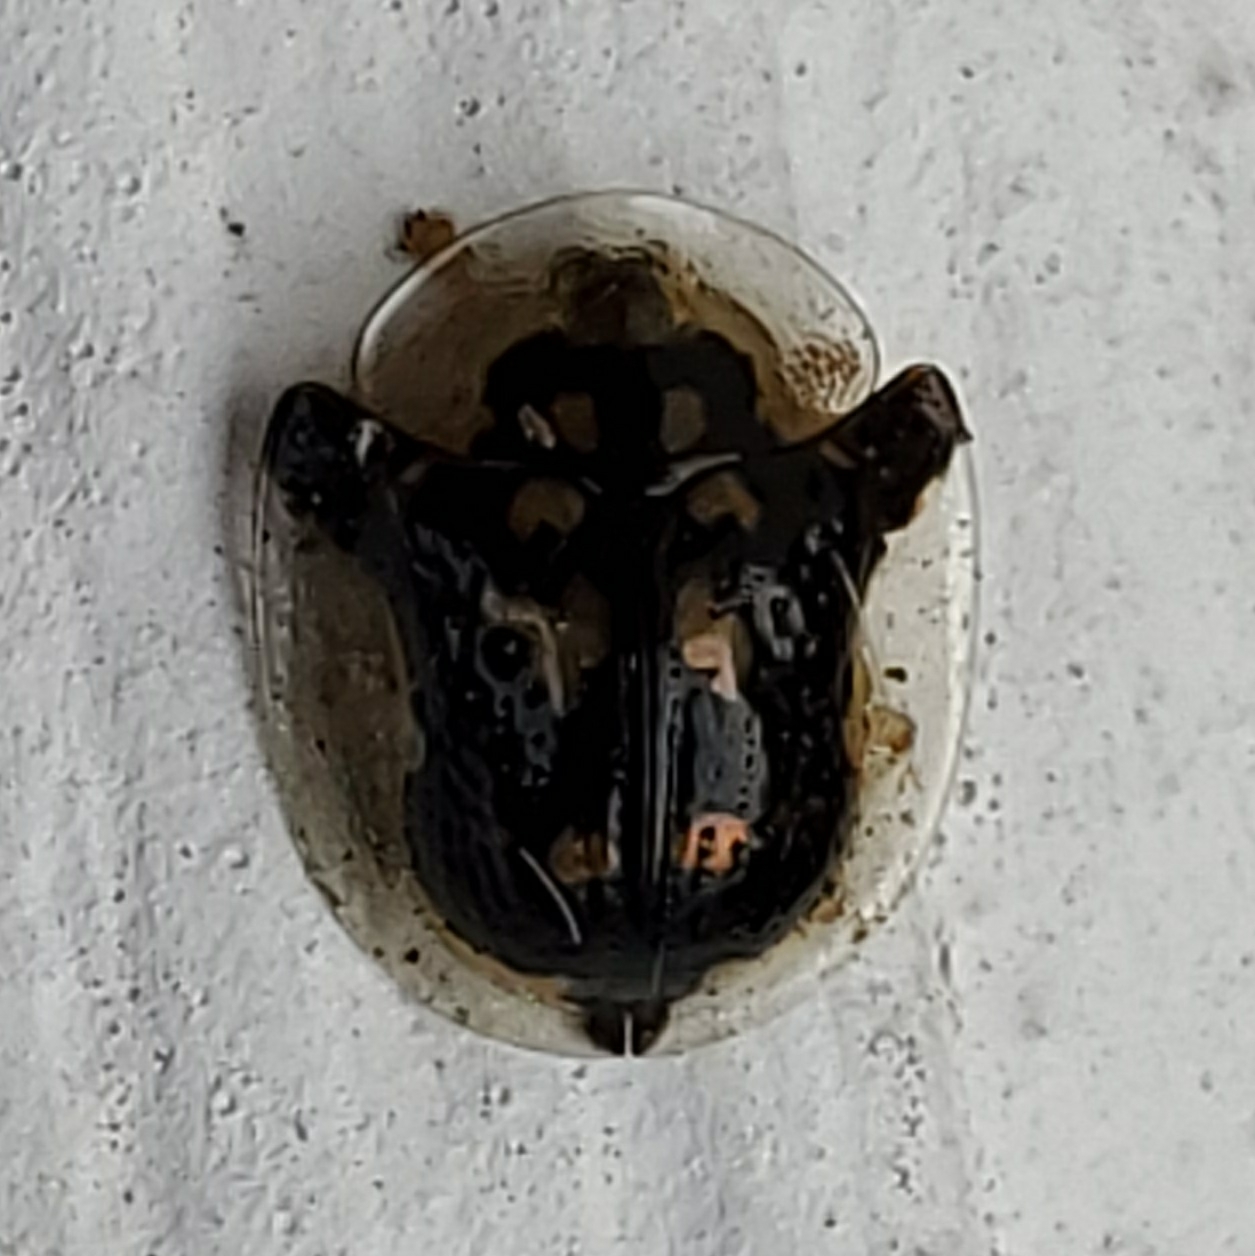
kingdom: Animalia
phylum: Arthropoda
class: Insecta
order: Coleoptera
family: Chrysomelidae
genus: Deloyala
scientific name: Deloyala guttata
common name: Mottled tortoise beetle
